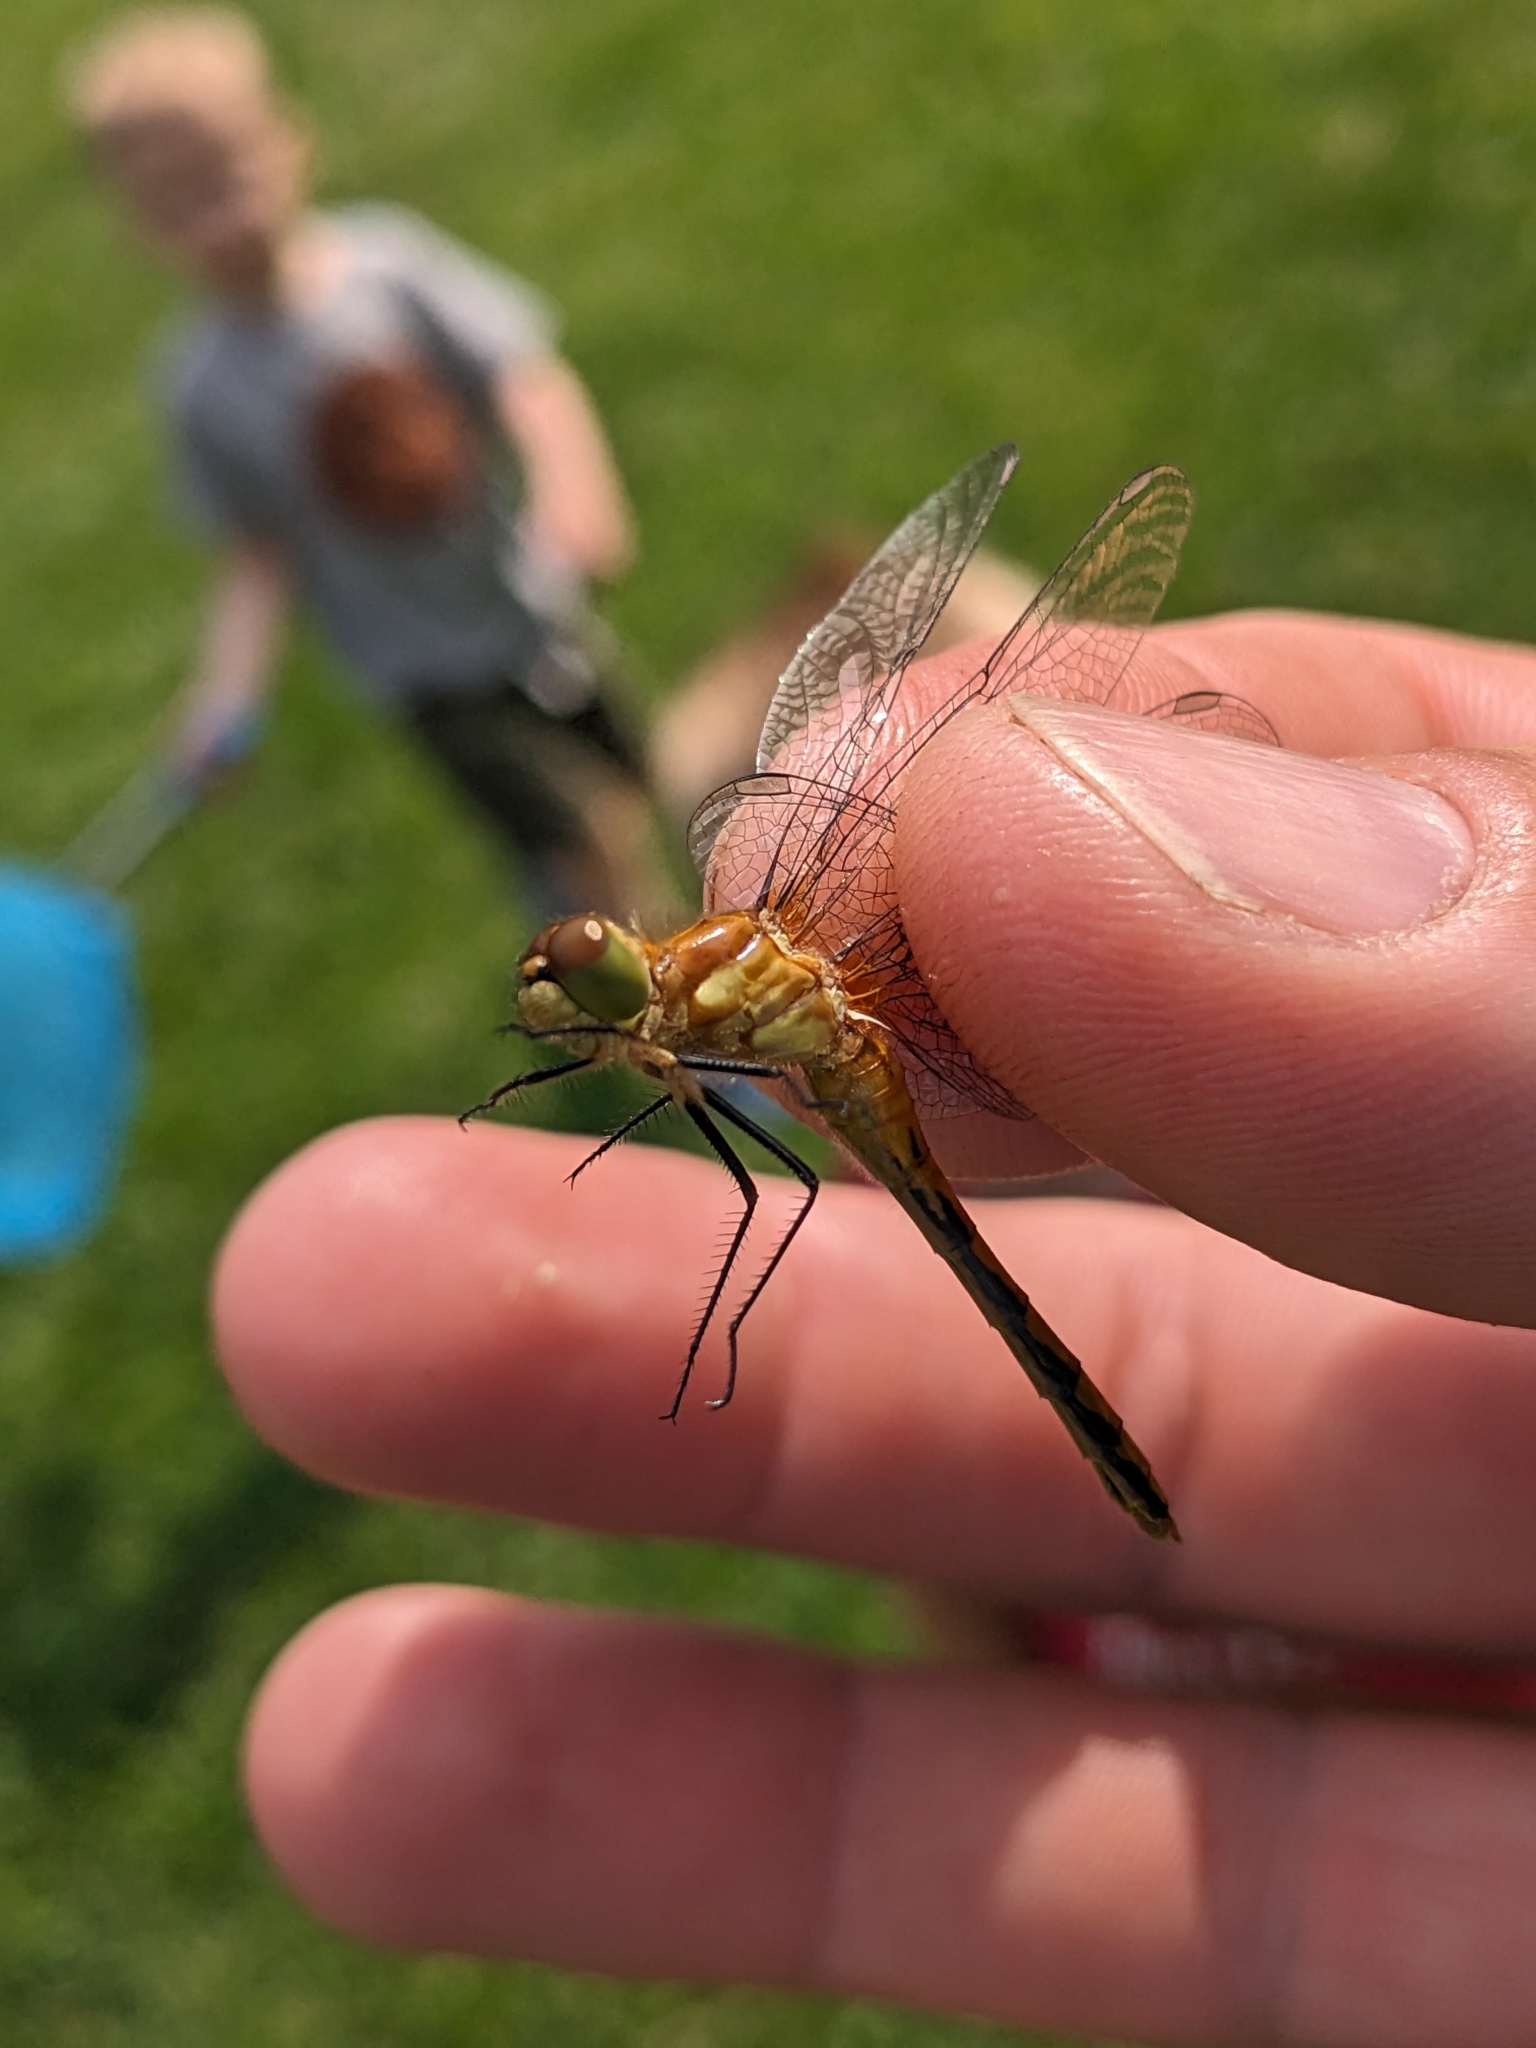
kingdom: Animalia
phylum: Arthropoda
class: Insecta
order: Odonata
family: Libellulidae
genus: Sympetrum
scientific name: Sympetrum
